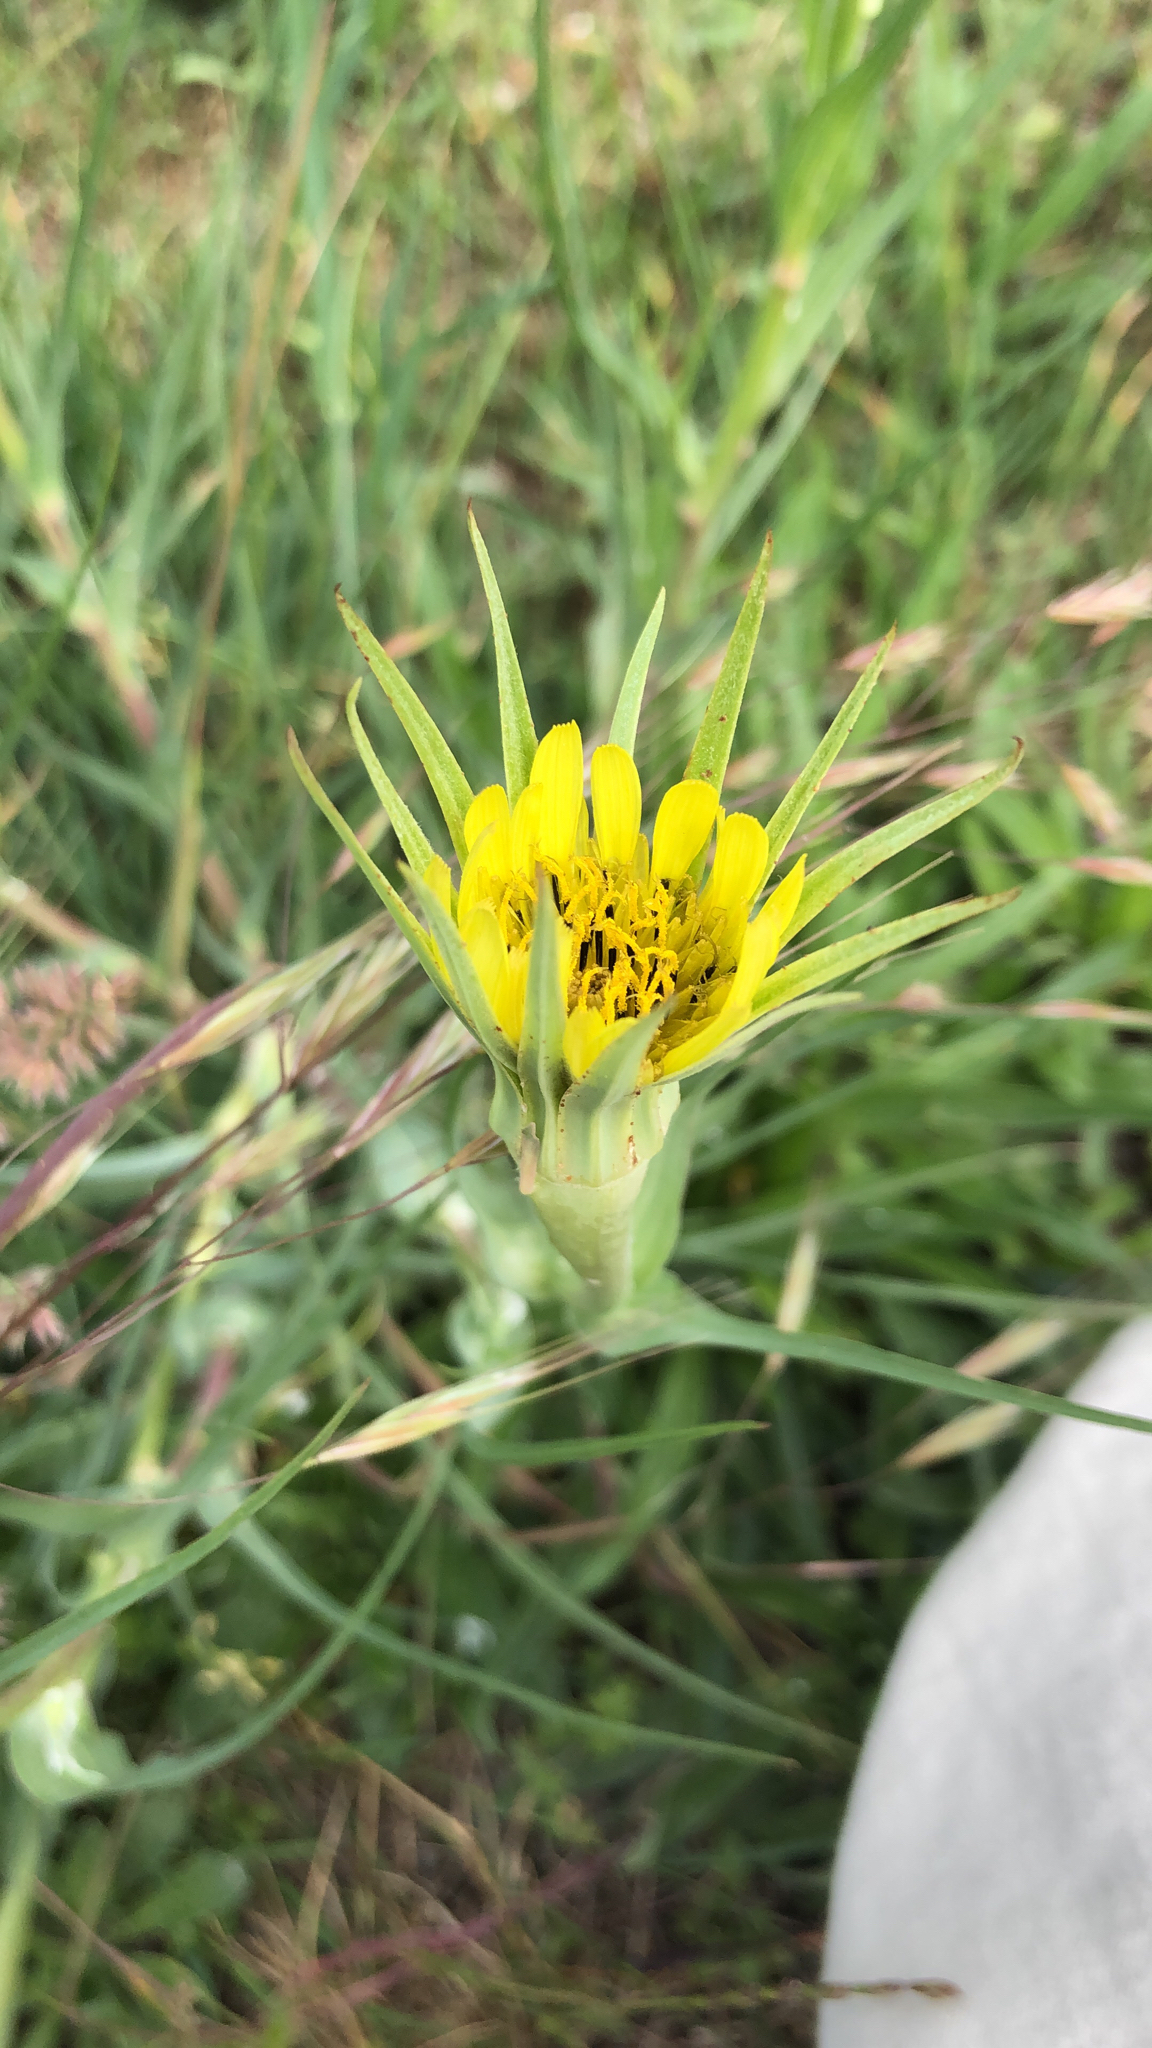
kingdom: Plantae
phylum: Tracheophyta
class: Magnoliopsida
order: Asterales
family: Asteraceae
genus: Tragopogon
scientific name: Tragopogon dubius
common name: Yellow salsify
